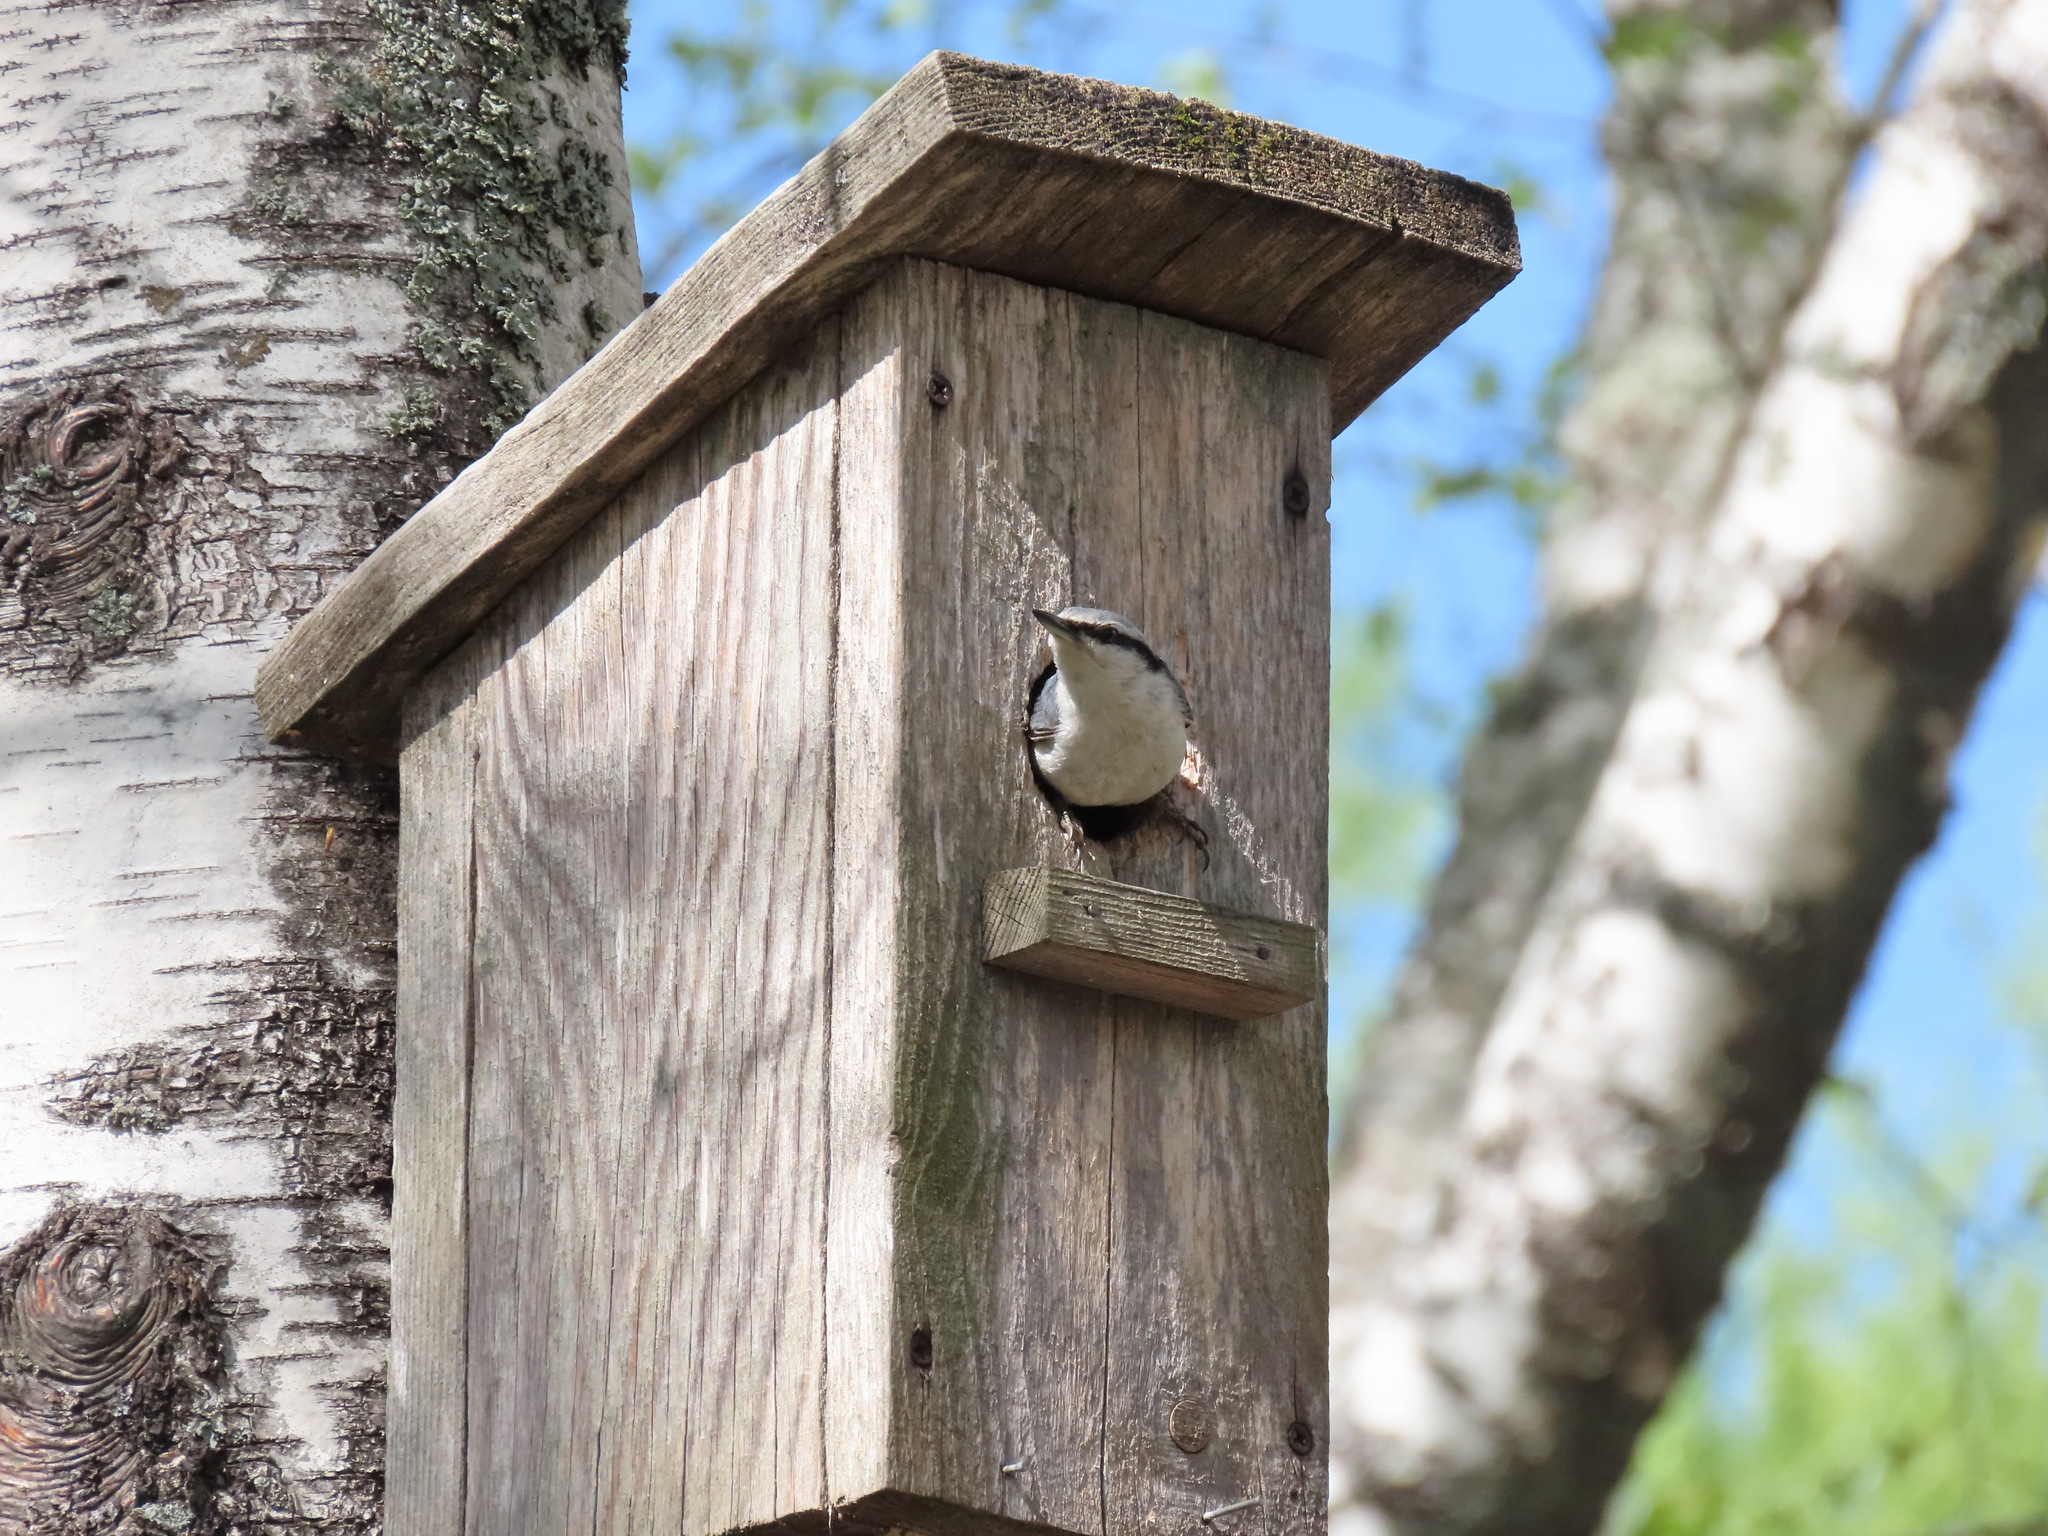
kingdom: Animalia
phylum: Chordata
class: Aves
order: Passeriformes
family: Sittidae
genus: Sitta
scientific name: Sitta europaea
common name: Eurasian nuthatch
